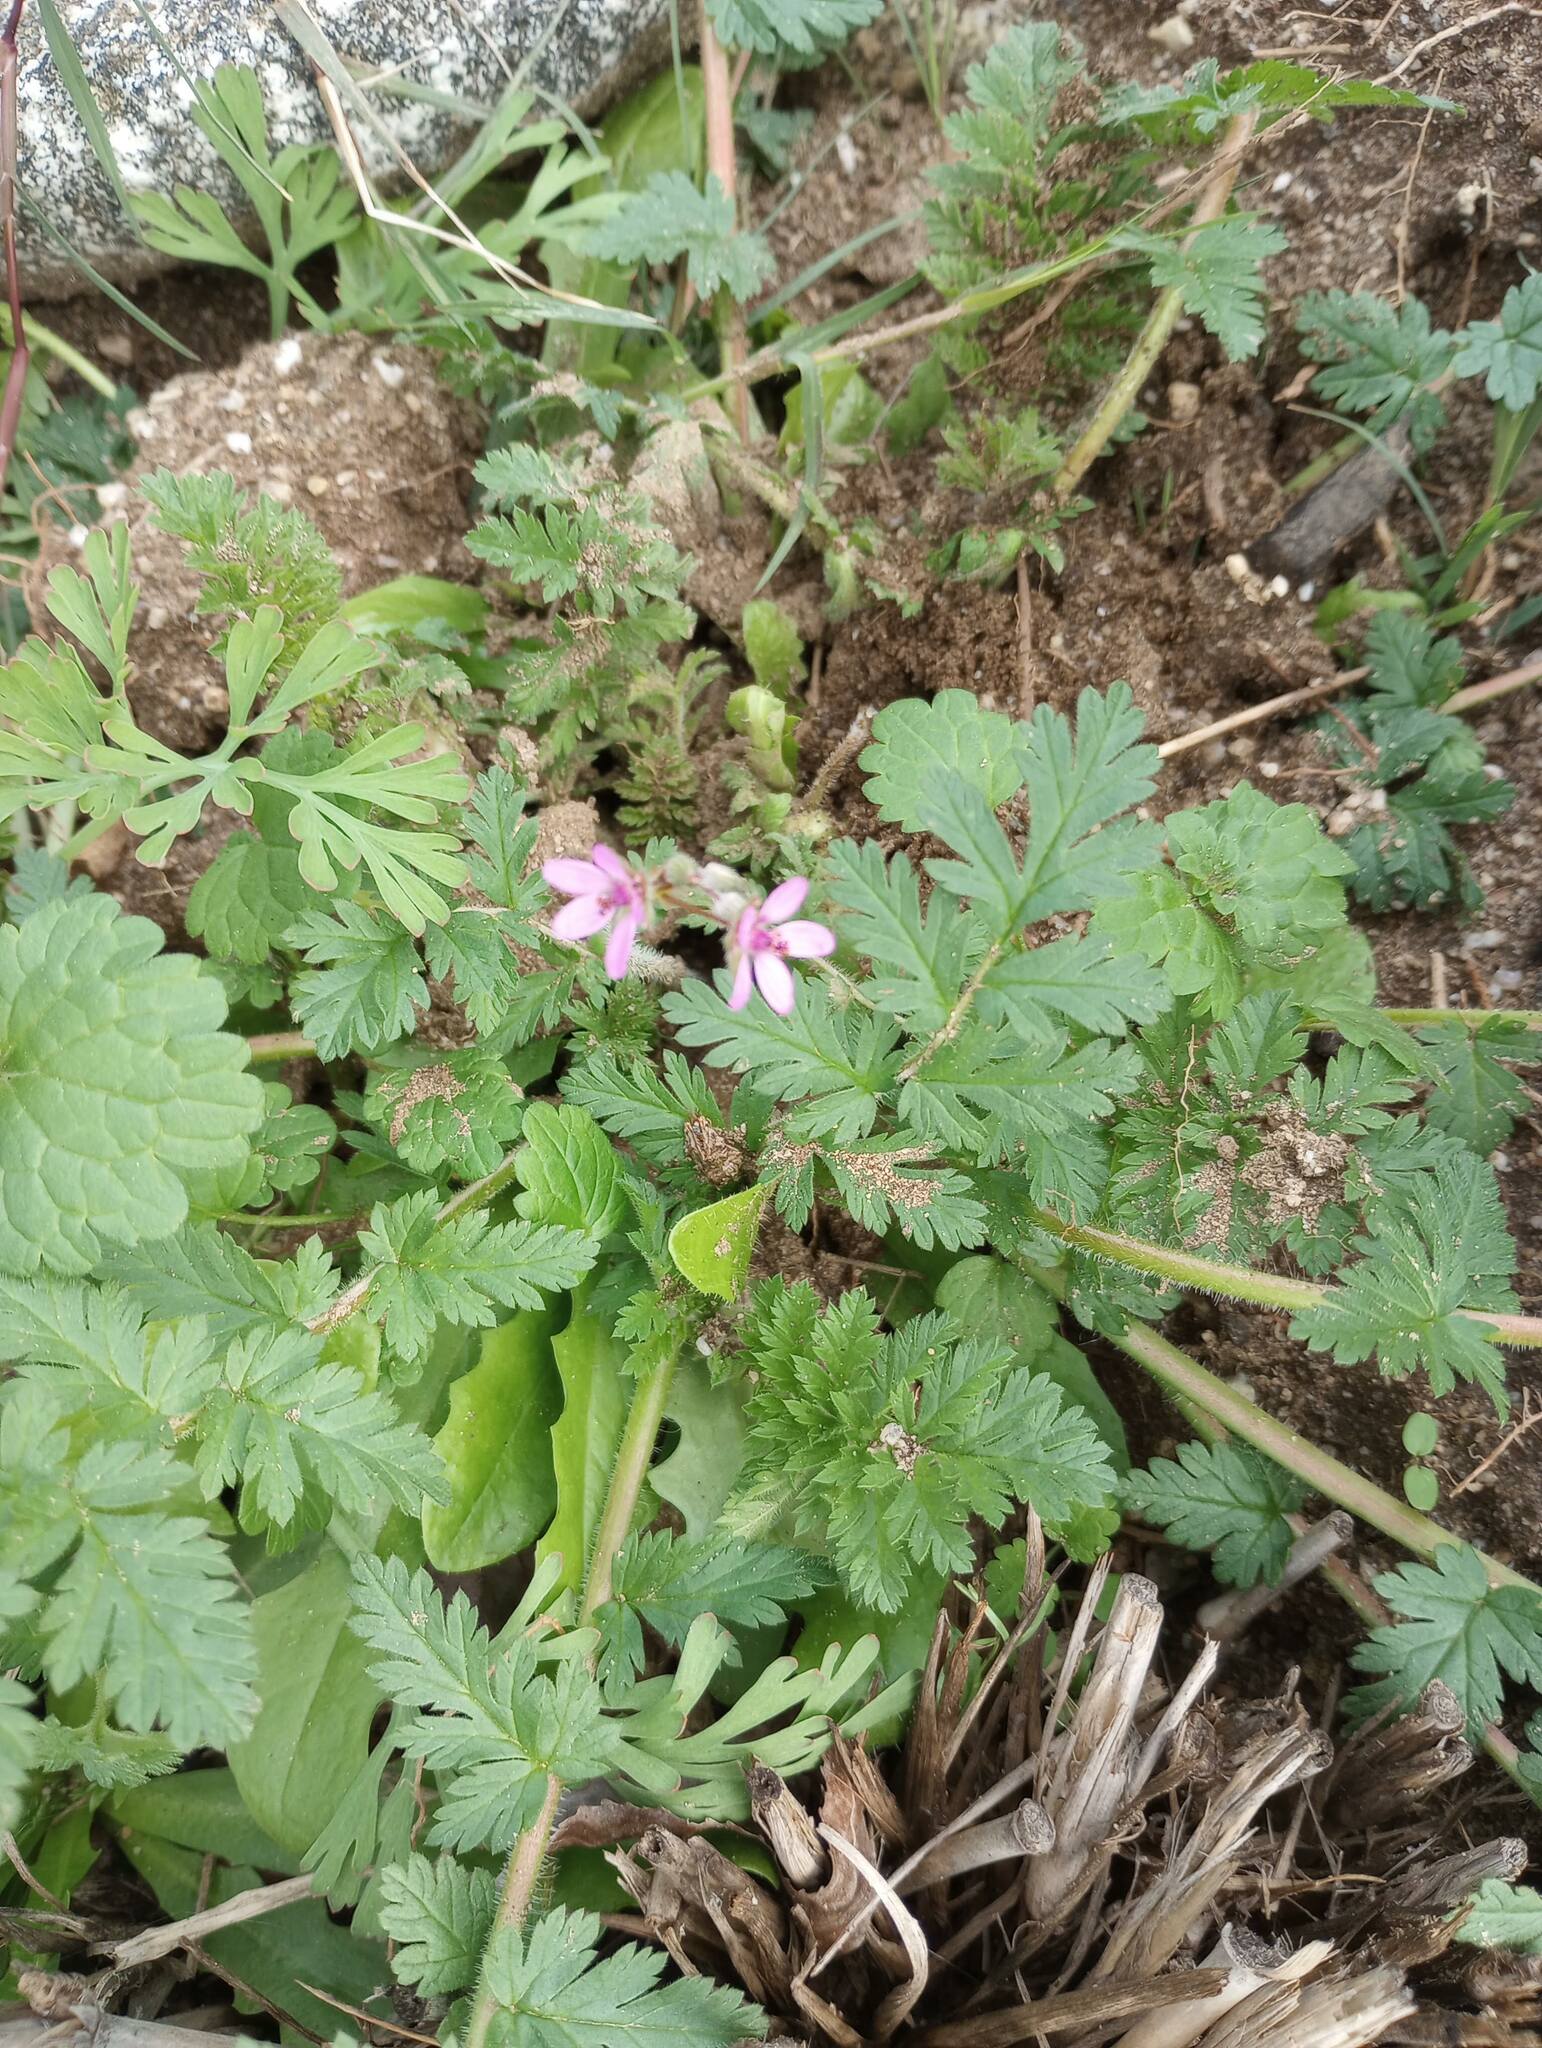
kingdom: Plantae
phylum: Tracheophyta
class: Magnoliopsida
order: Geraniales
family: Geraniaceae
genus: Erodium
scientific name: Erodium cicutarium
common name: Common stork's-bill
